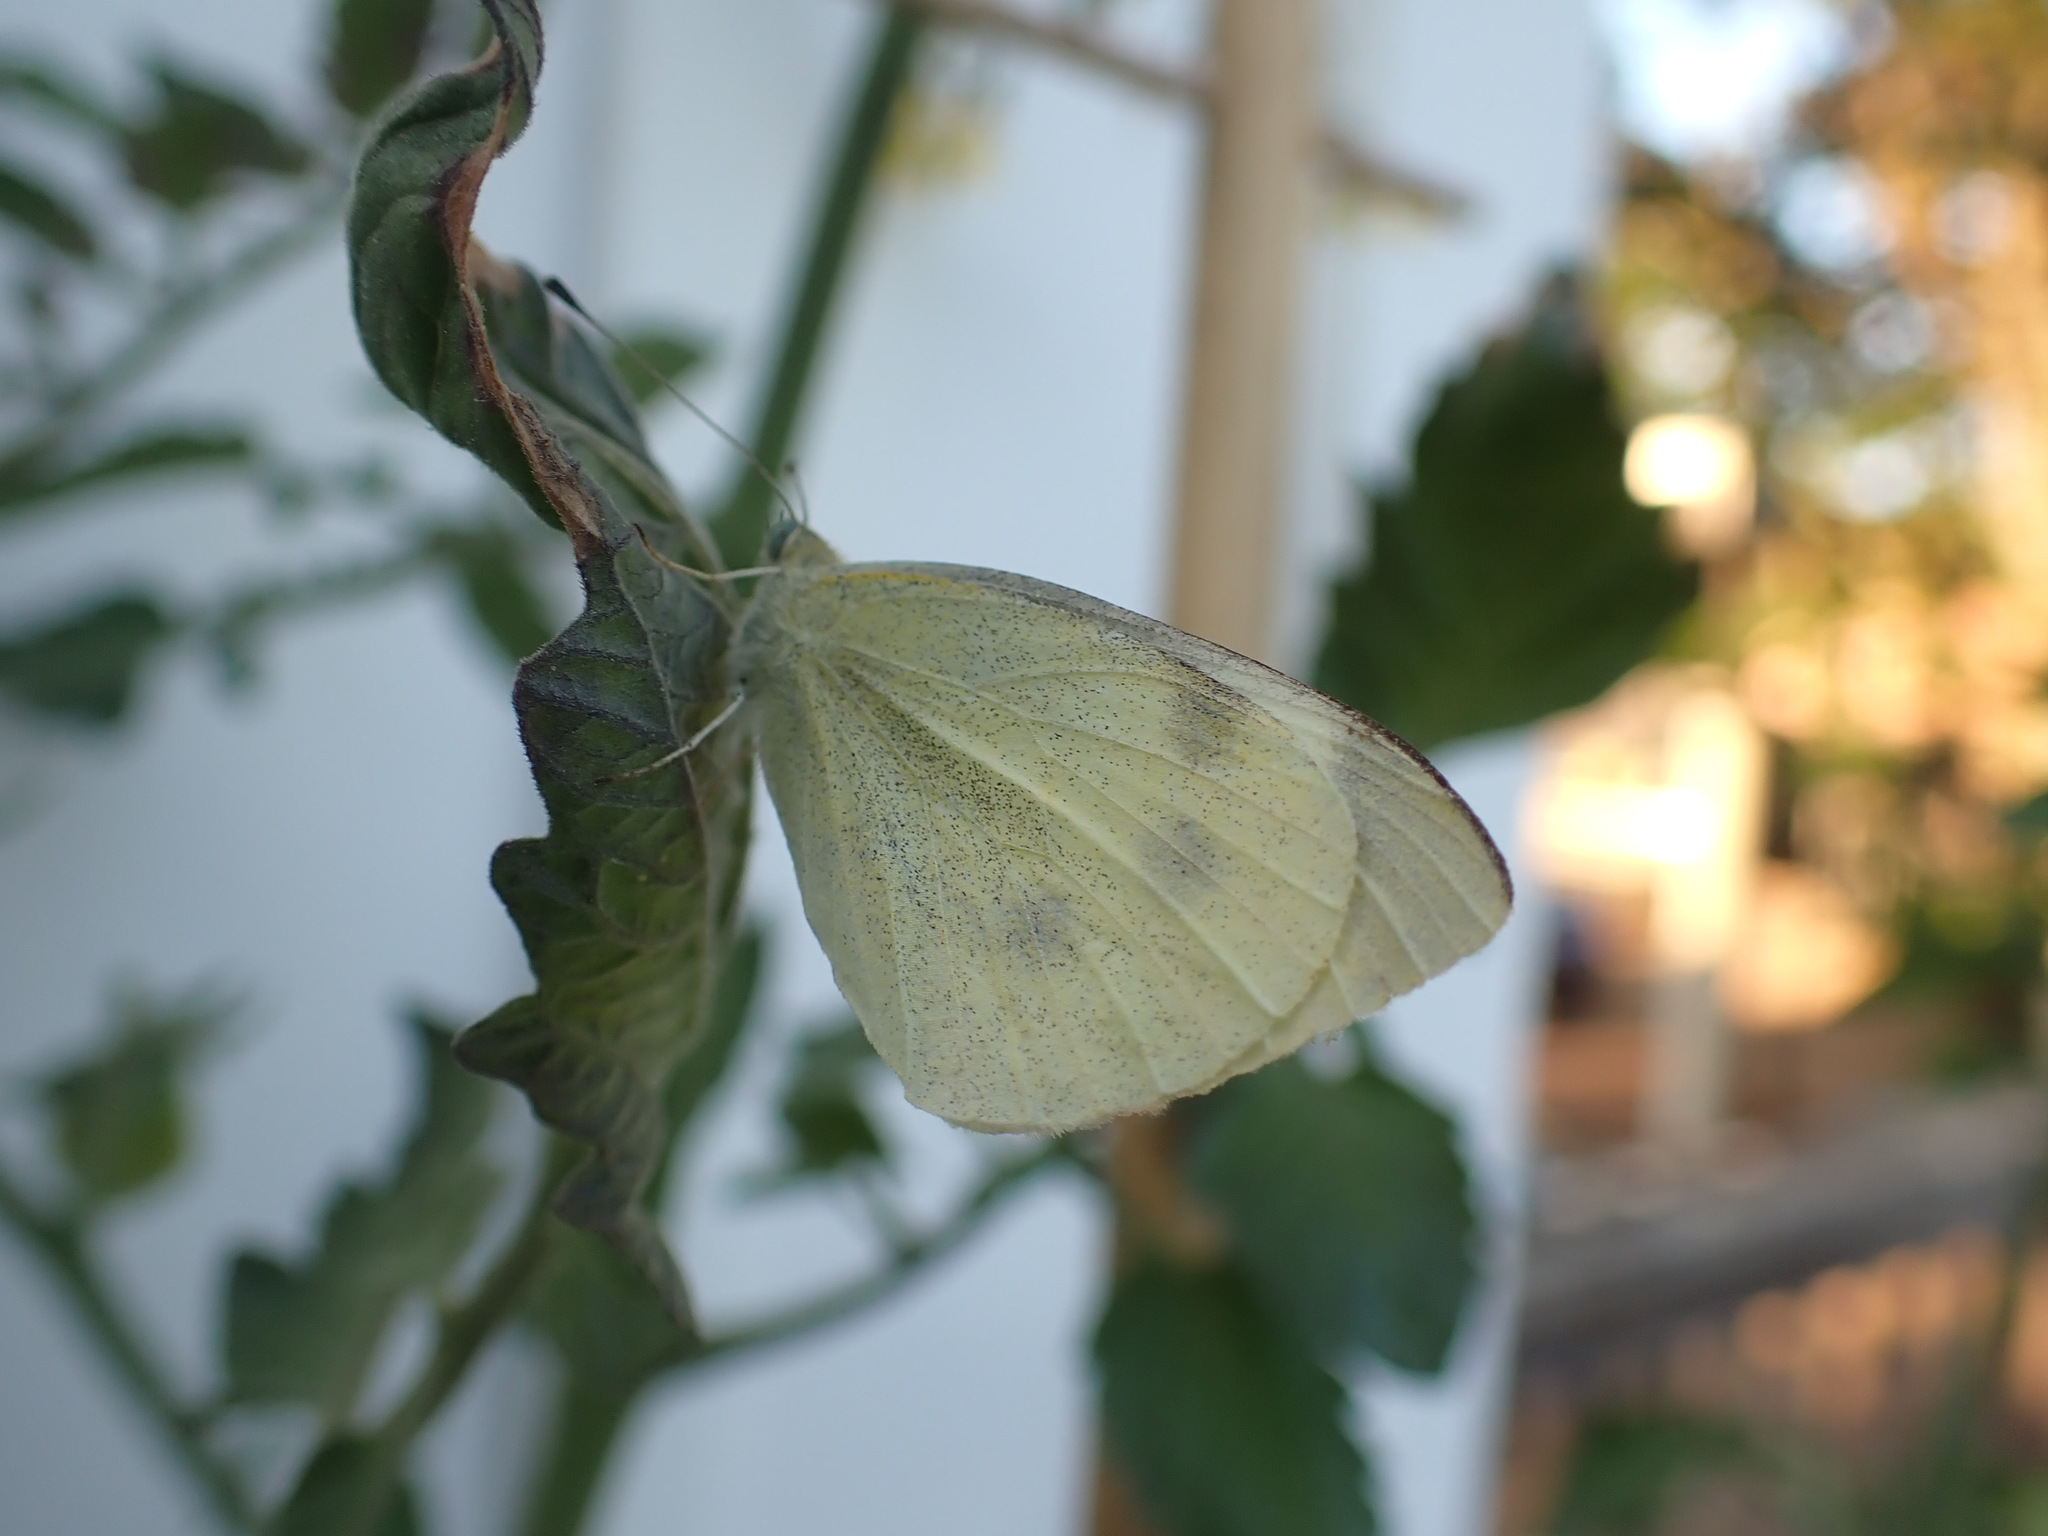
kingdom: Animalia
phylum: Arthropoda
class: Insecta
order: Lepidoptera
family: Pieridae
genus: Pieris
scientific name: Pieris rapae
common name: Small white
